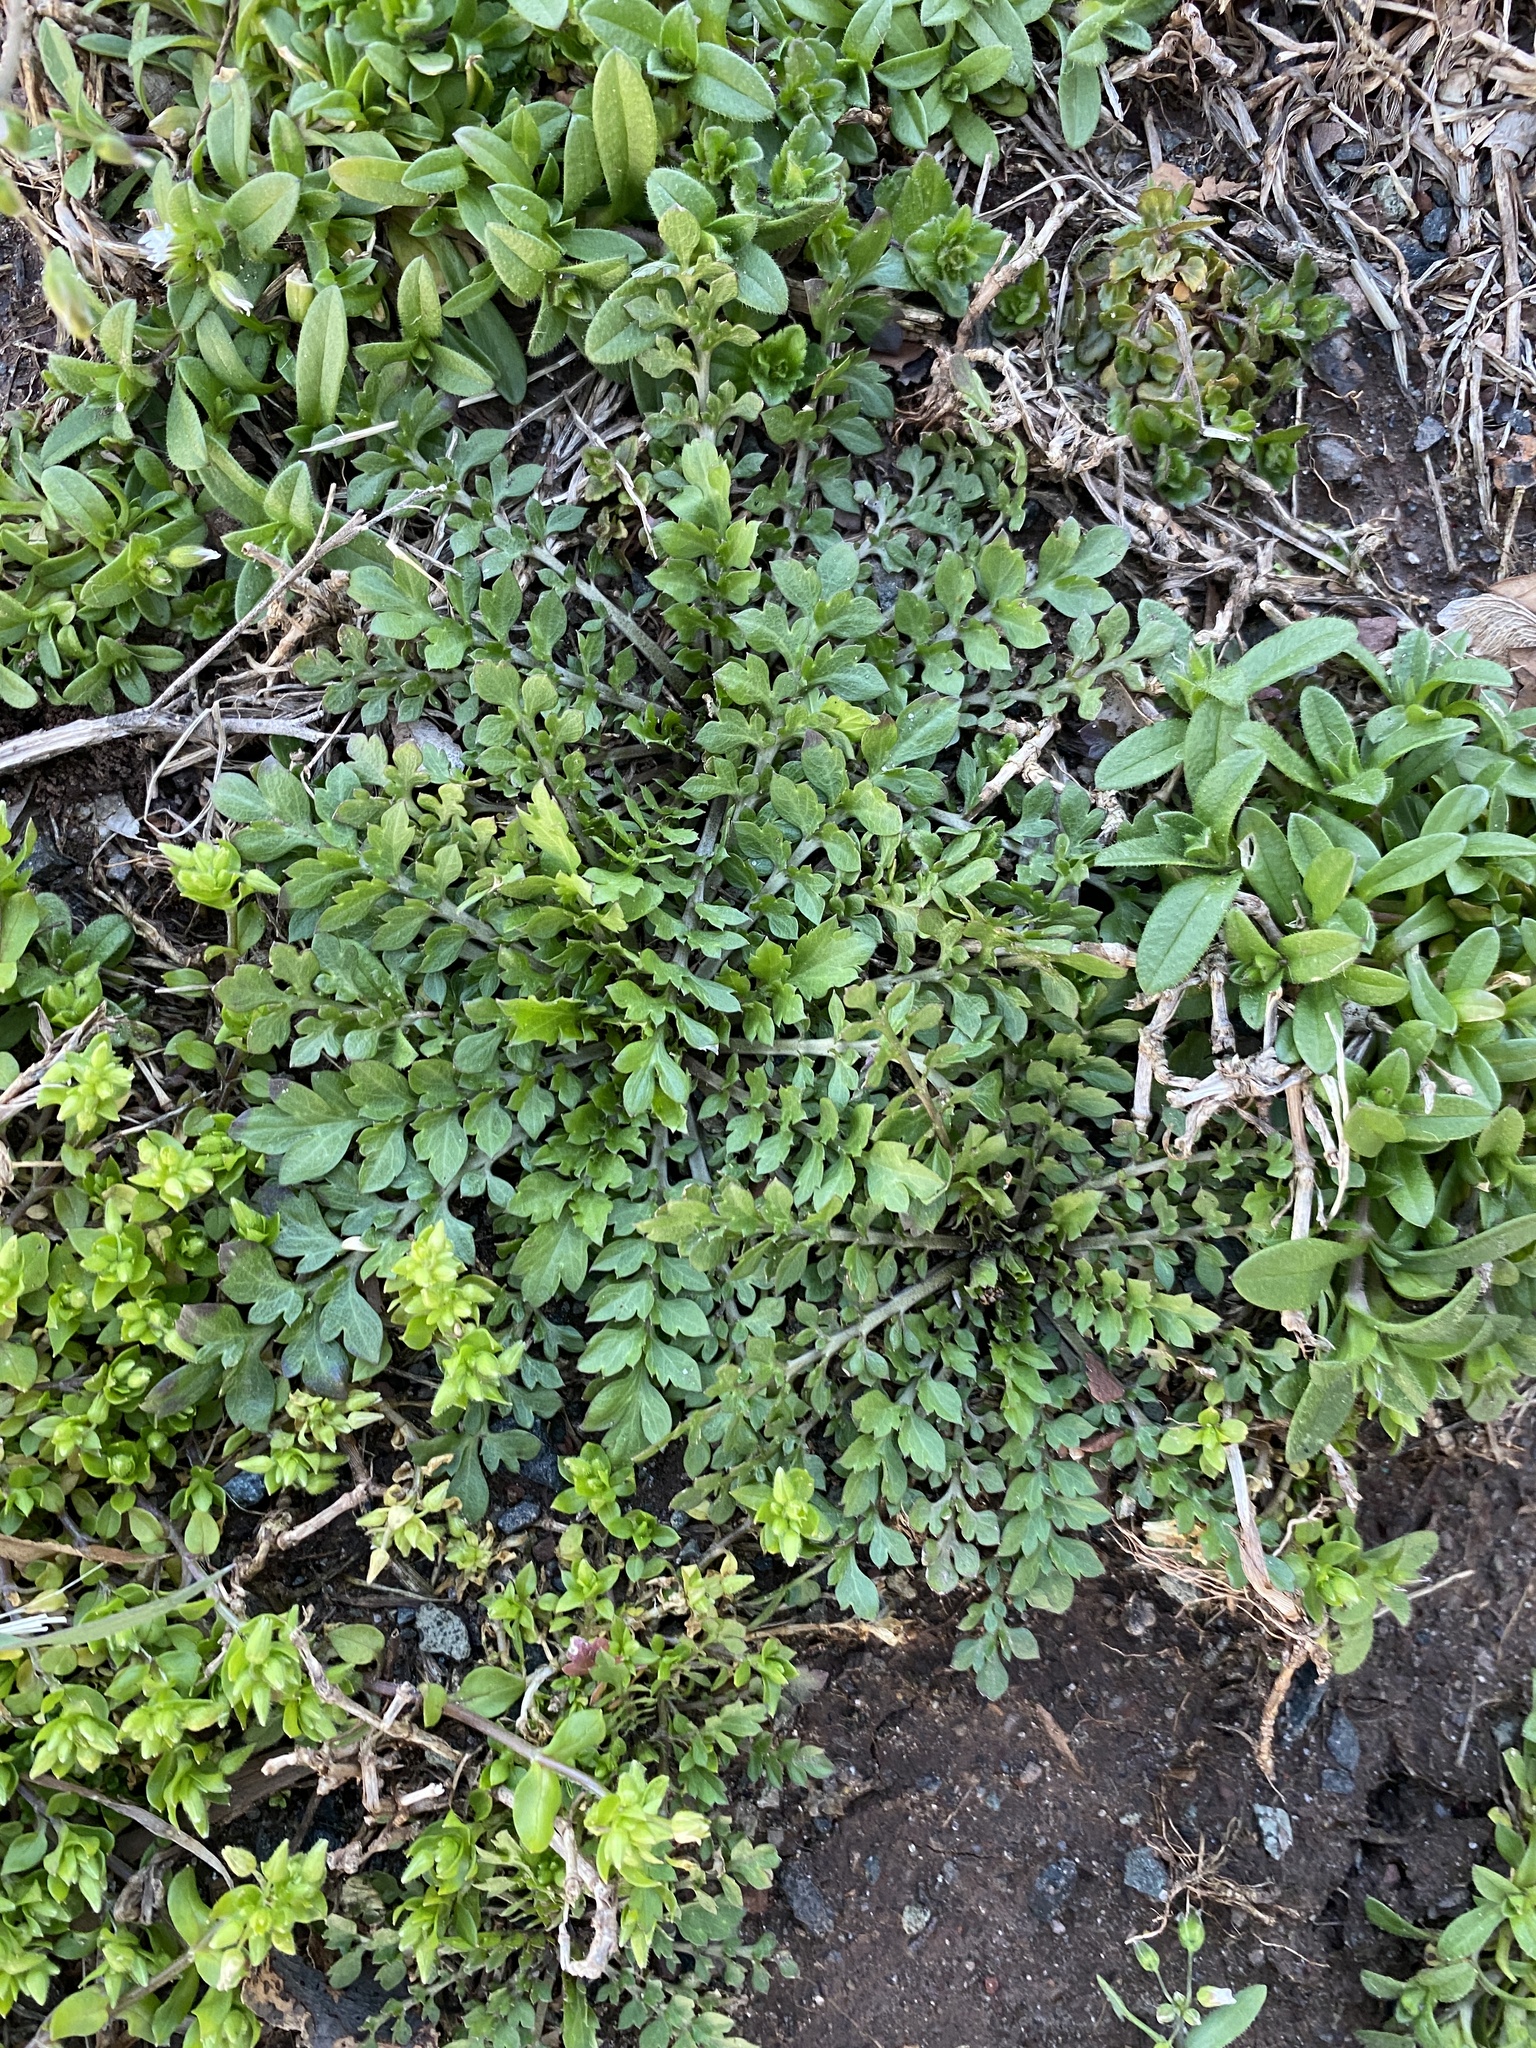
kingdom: Plantae
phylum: Tracheophyta
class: Magnoliopsida
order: Brassicales
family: Brassicaceae
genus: Lepidium
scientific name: Lepidium didymum
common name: Lesser swinecress
